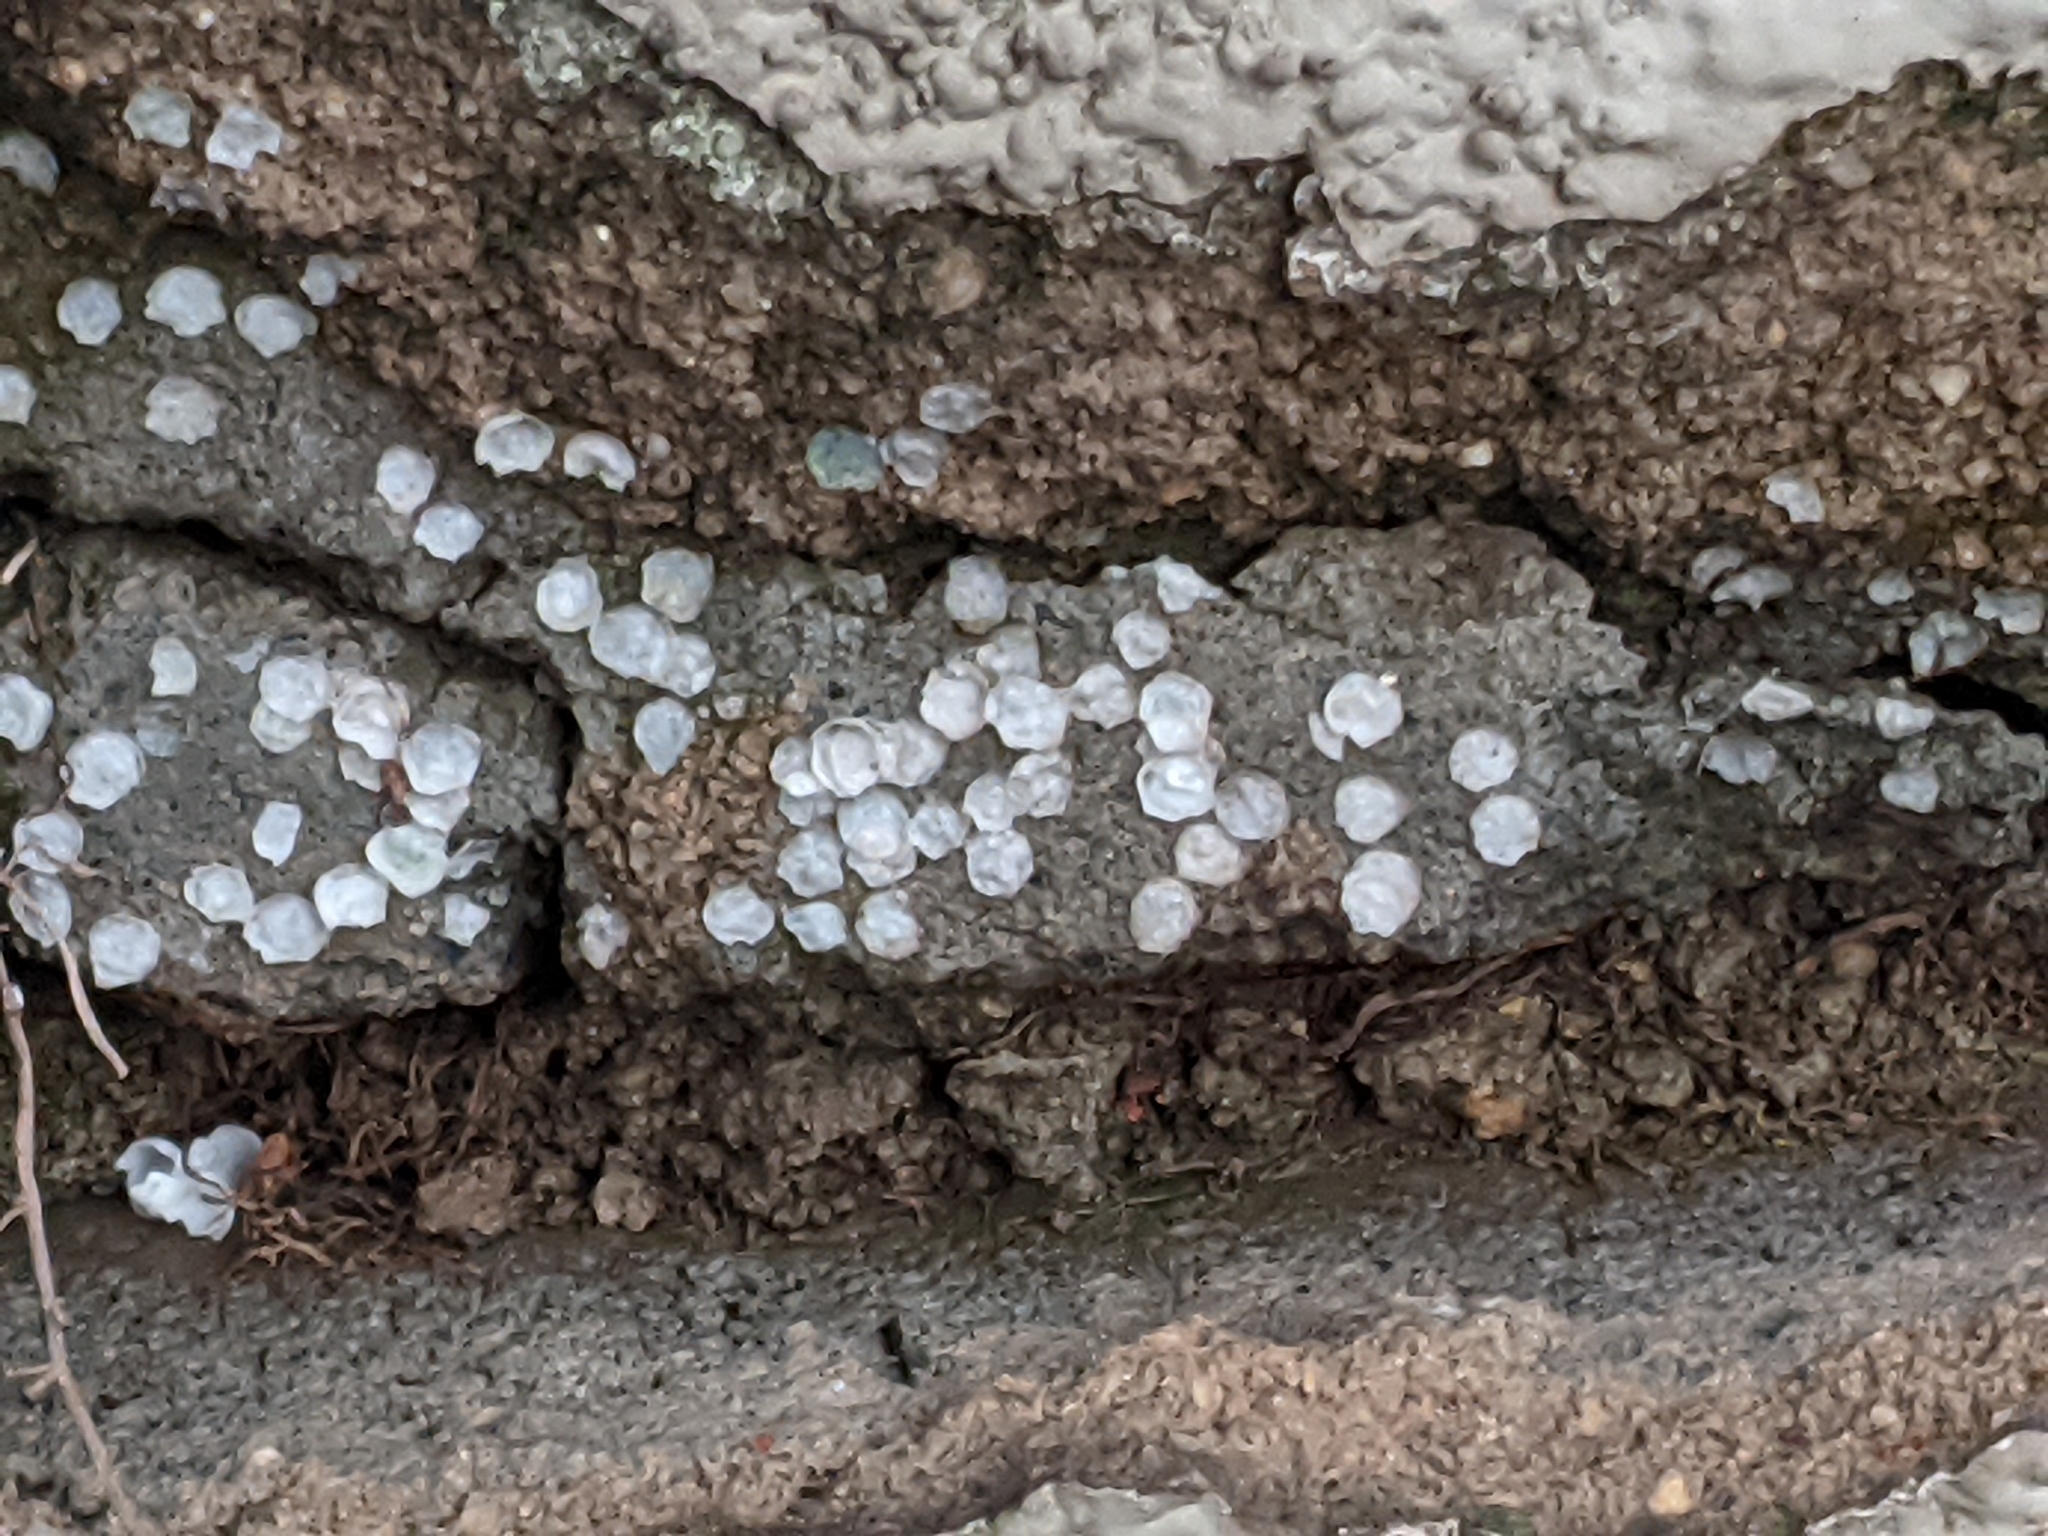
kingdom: Animalia
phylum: Chordata
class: Squamata
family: Gekkonidae
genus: Cnemaspis
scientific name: Cnemaspis mysoriensis
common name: Mysore day gecko
